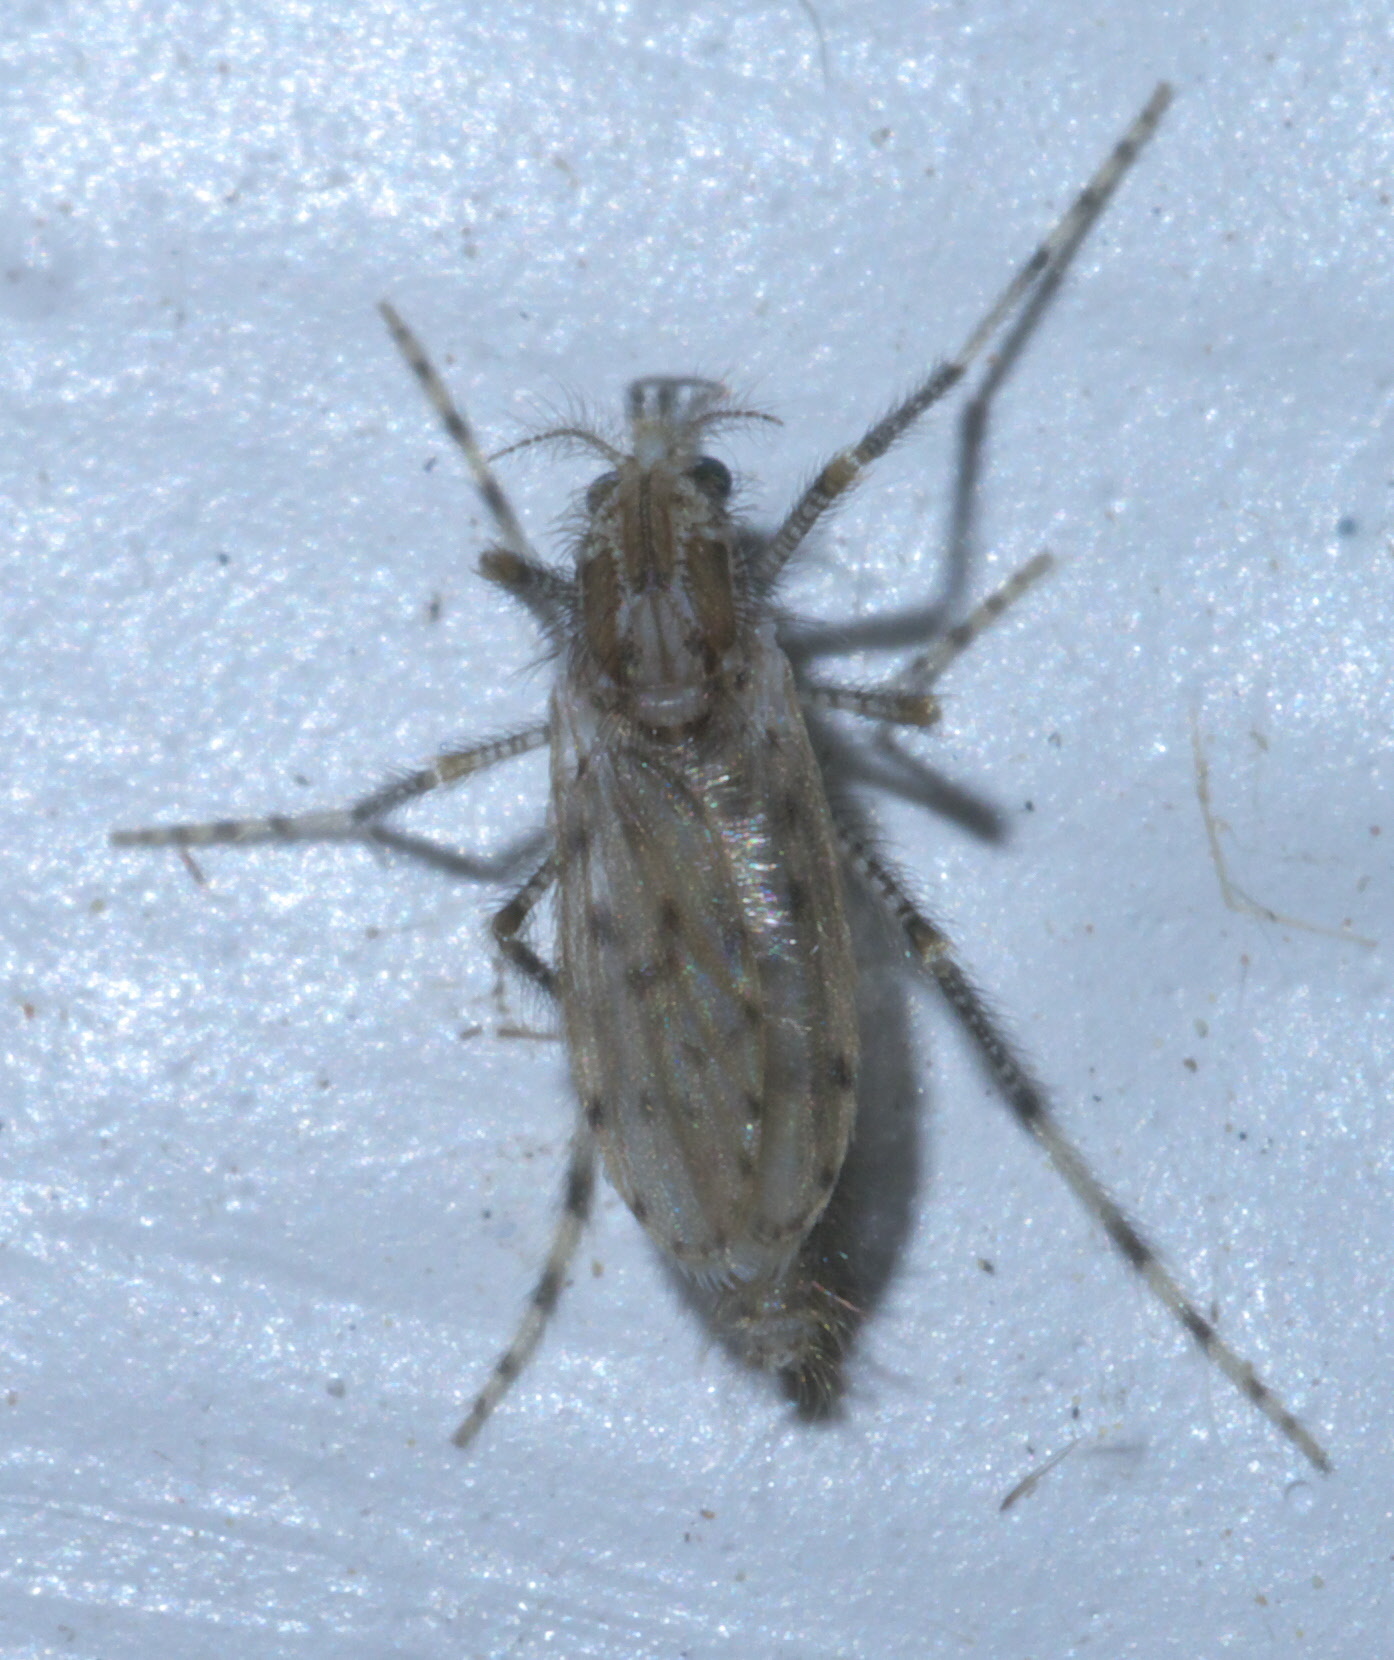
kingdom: Animalia
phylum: Arthropoda
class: Insecta
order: Diptera
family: Chaoboridae
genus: Chaoborus
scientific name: Chaoborus punctipennis
